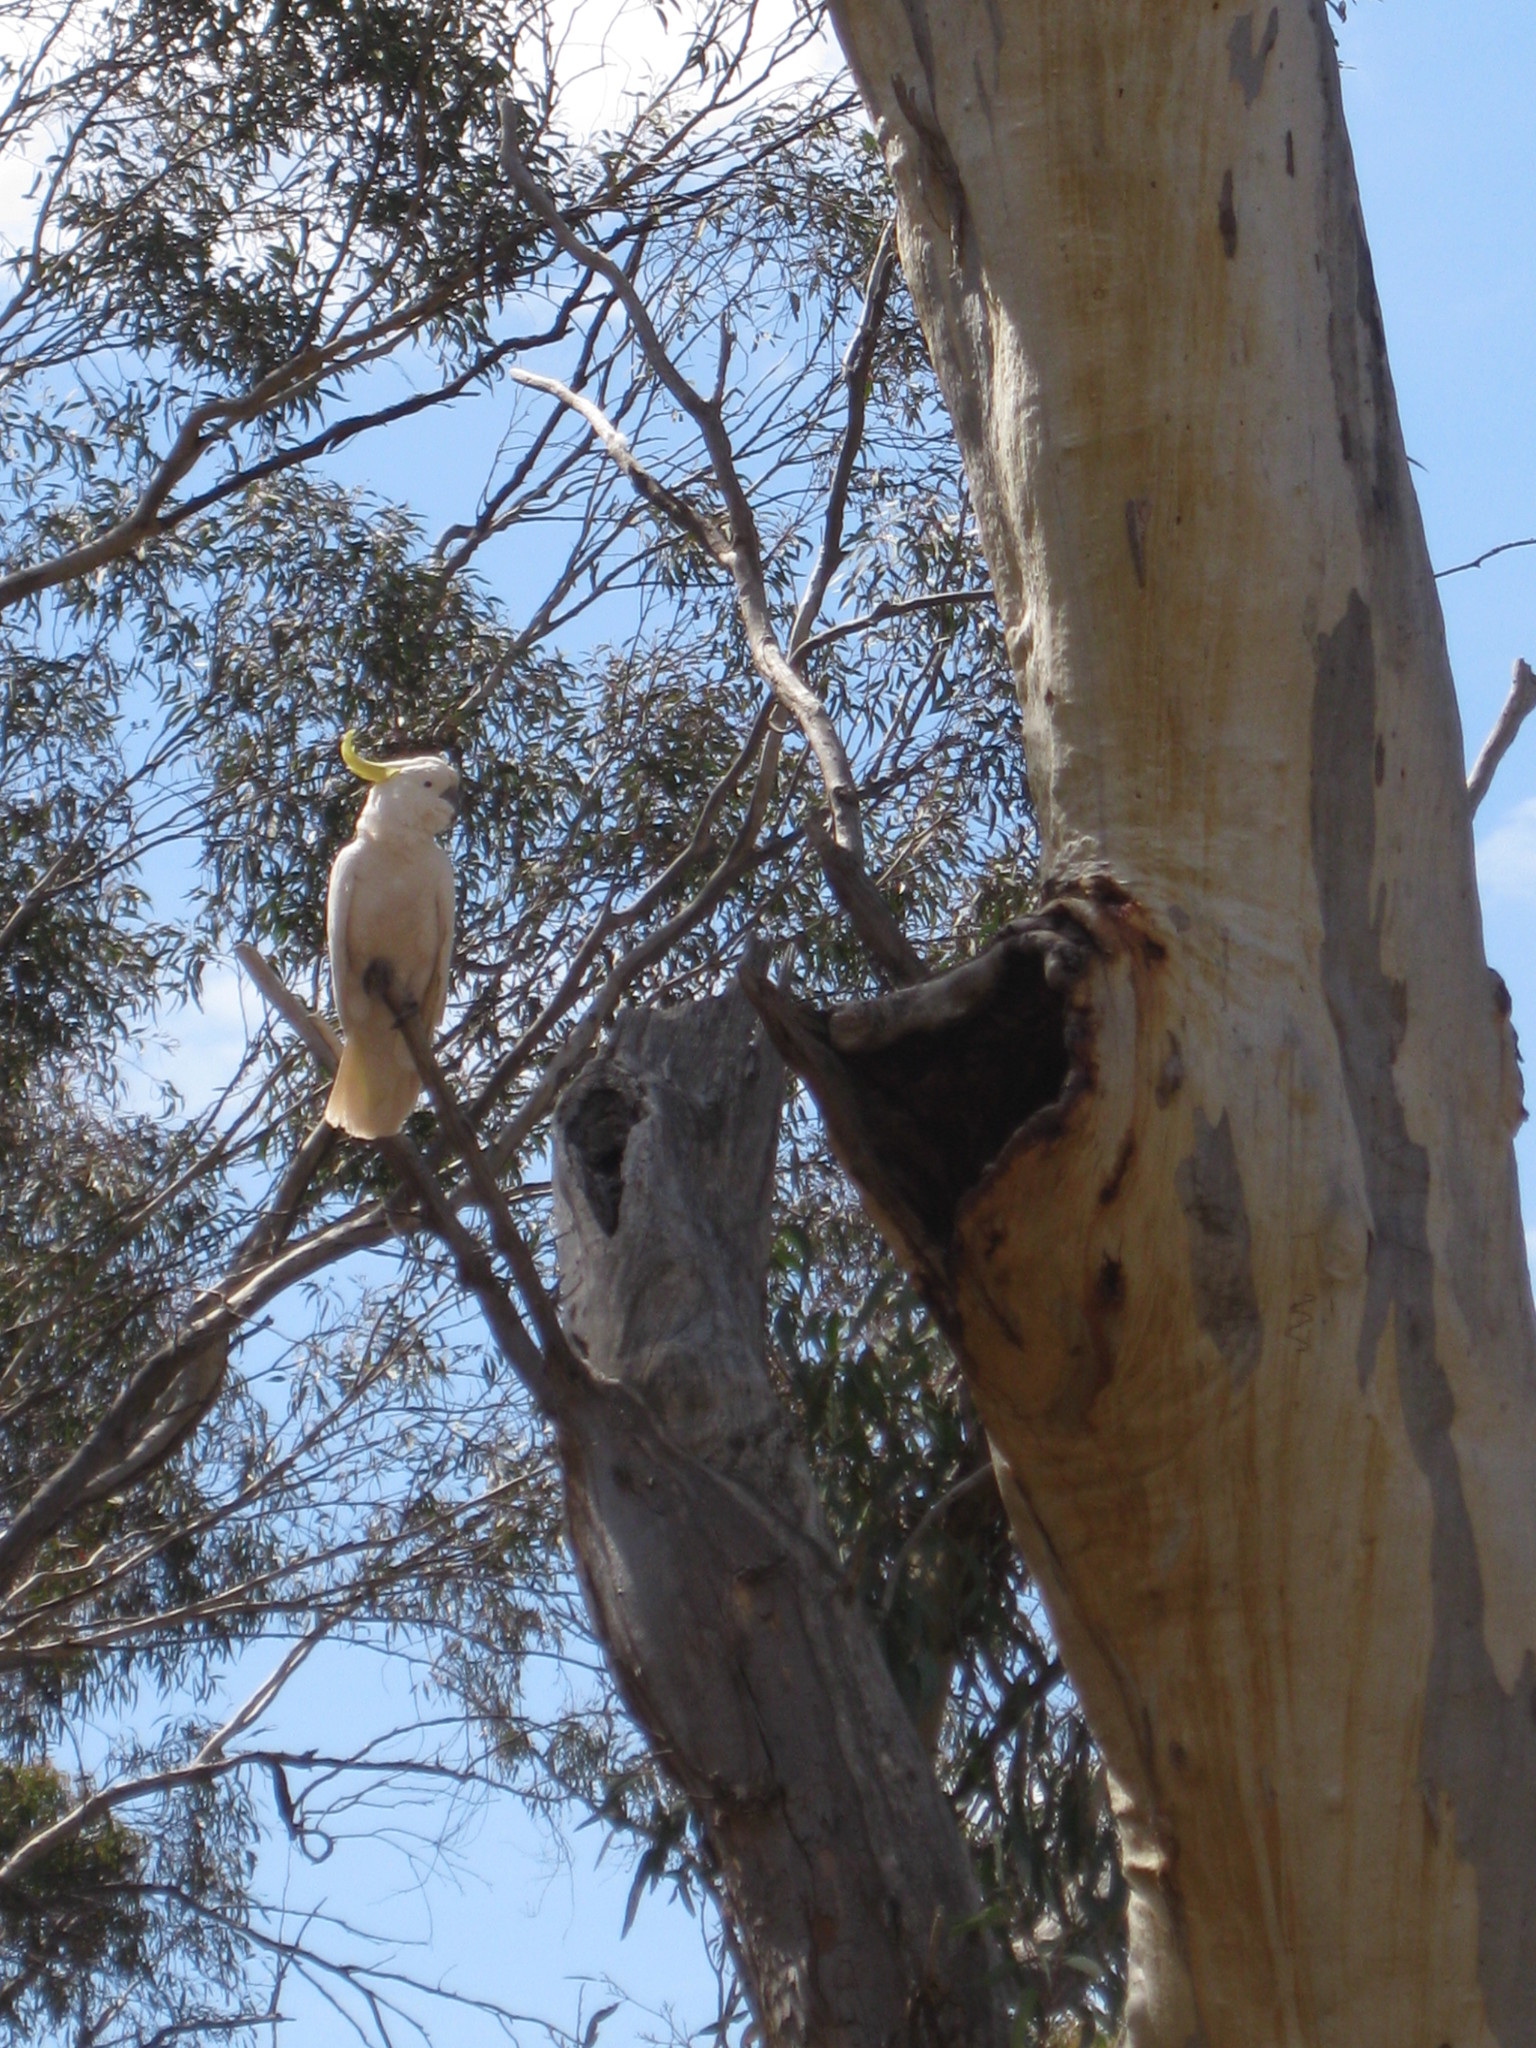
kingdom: Animalia
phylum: Chordata
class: Aves
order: Psittaciformes
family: Psittacidae
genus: Cacatua
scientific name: Cacatua galerita
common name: Sulphur-crested cockatoo
